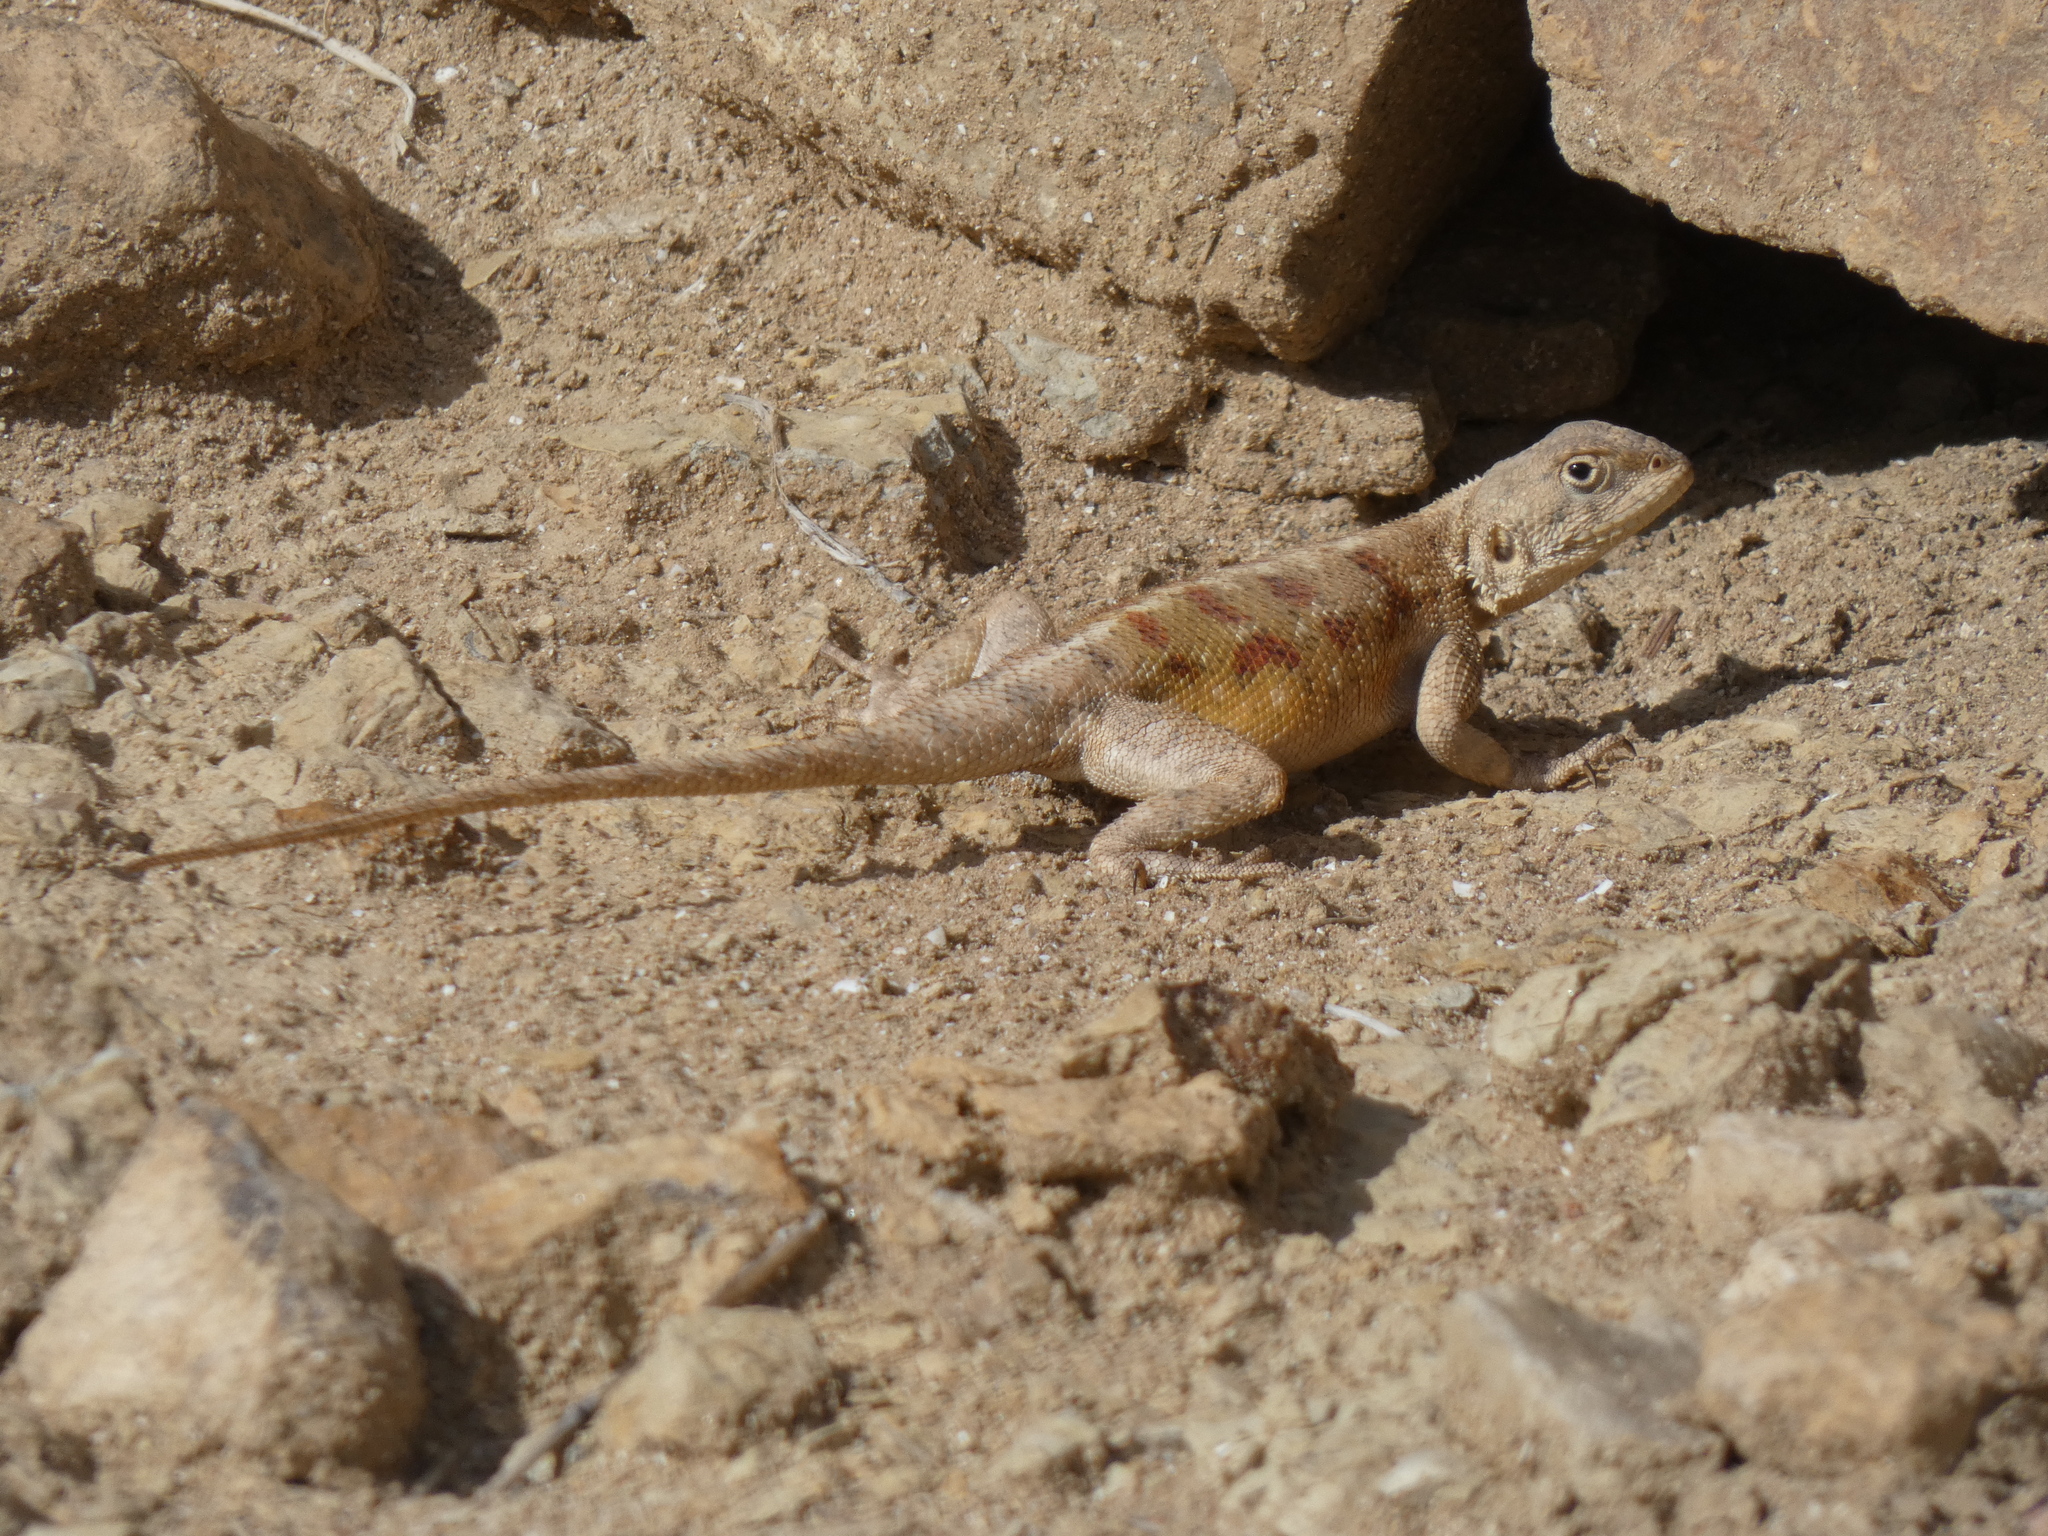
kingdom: Animalia
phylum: Chordata
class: Squamata
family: Agamidae
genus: Agama
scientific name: Agama impalearis
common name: Bibron's agama
